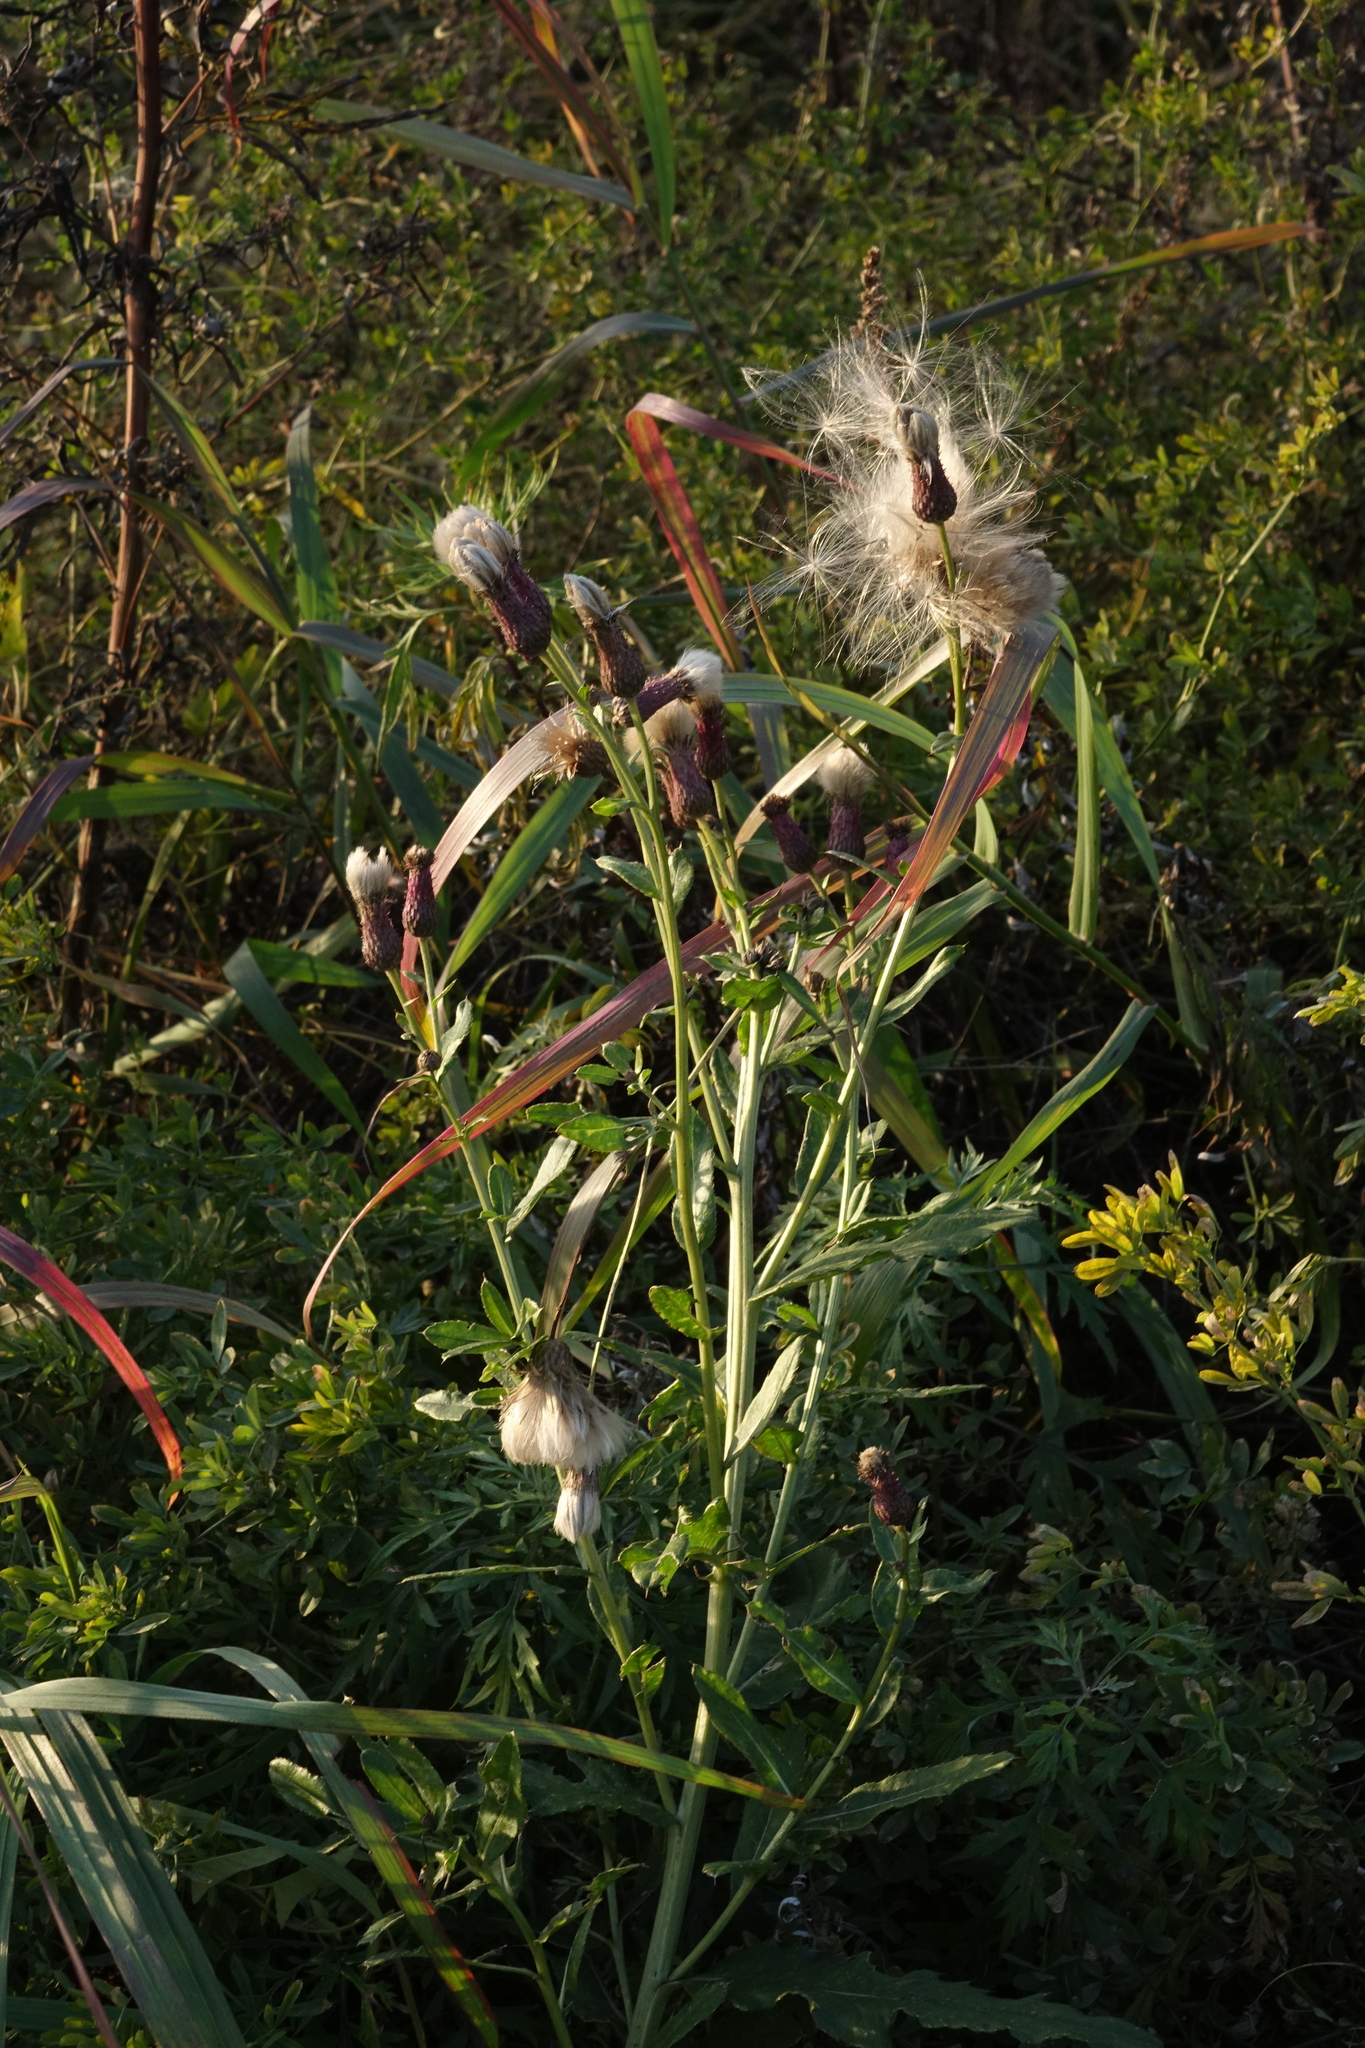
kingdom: Plantae
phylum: Tracheophyta
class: Magnoliopsida
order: Asterales
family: Asteraceae
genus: Cirsium
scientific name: Cirsium arvense
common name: Creeping thistle
